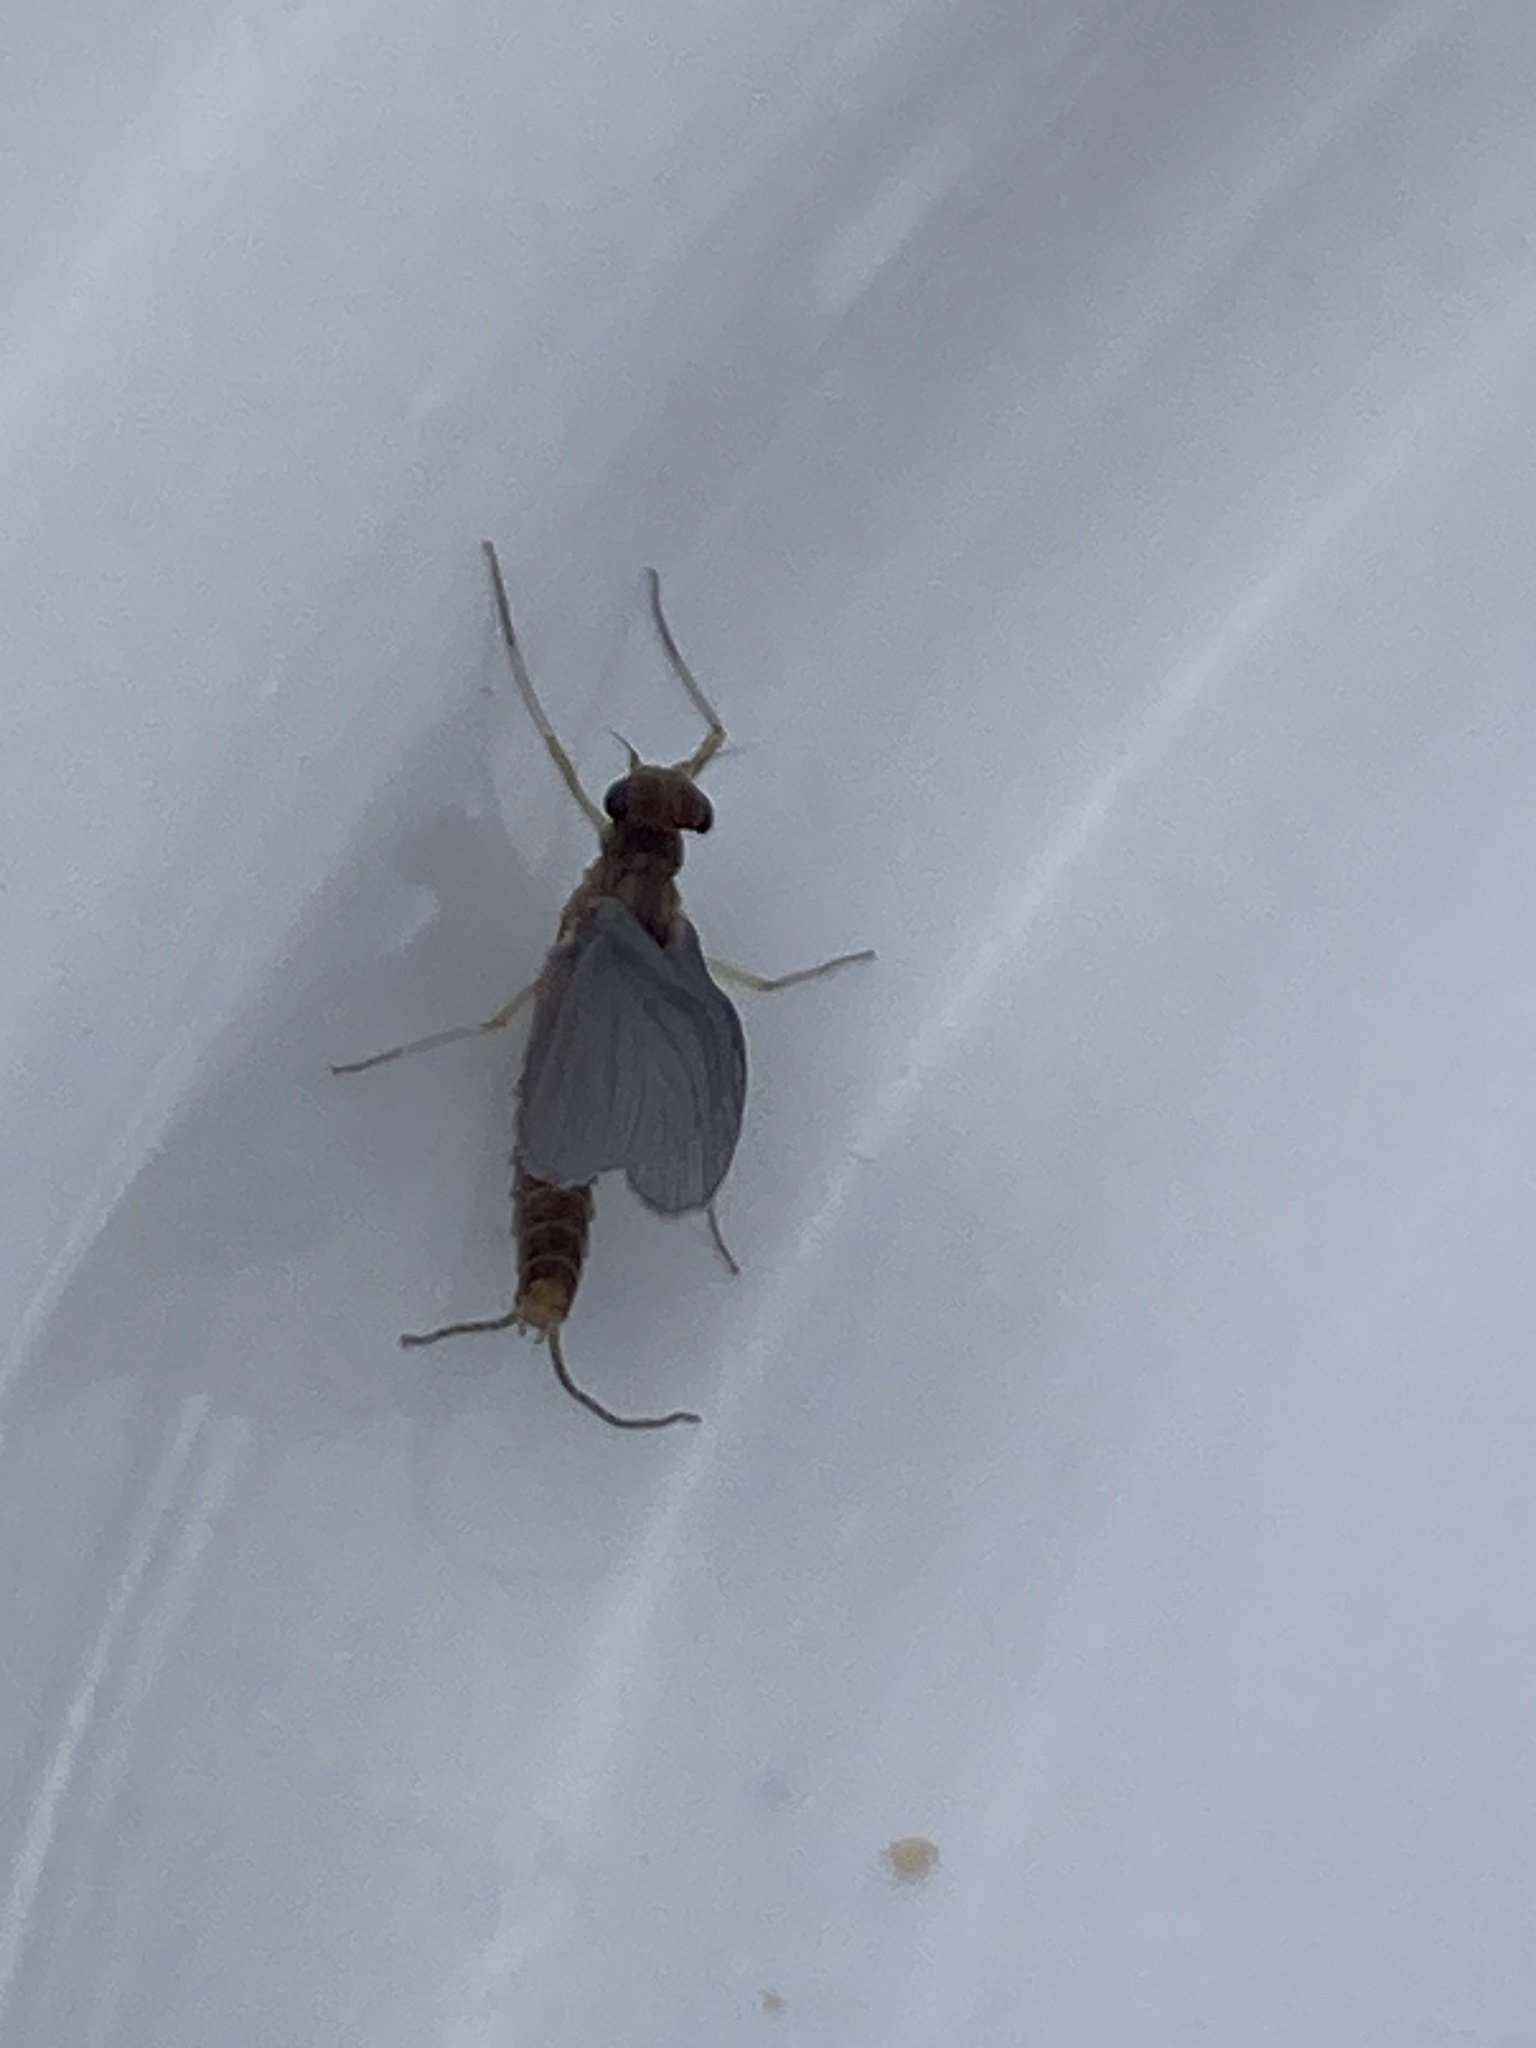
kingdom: Animalia
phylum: Arthropoda
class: Insecta
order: Ephemeroptera
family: Baetidae
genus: Cloeon
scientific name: Cloeon dipterum
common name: Pond olive
